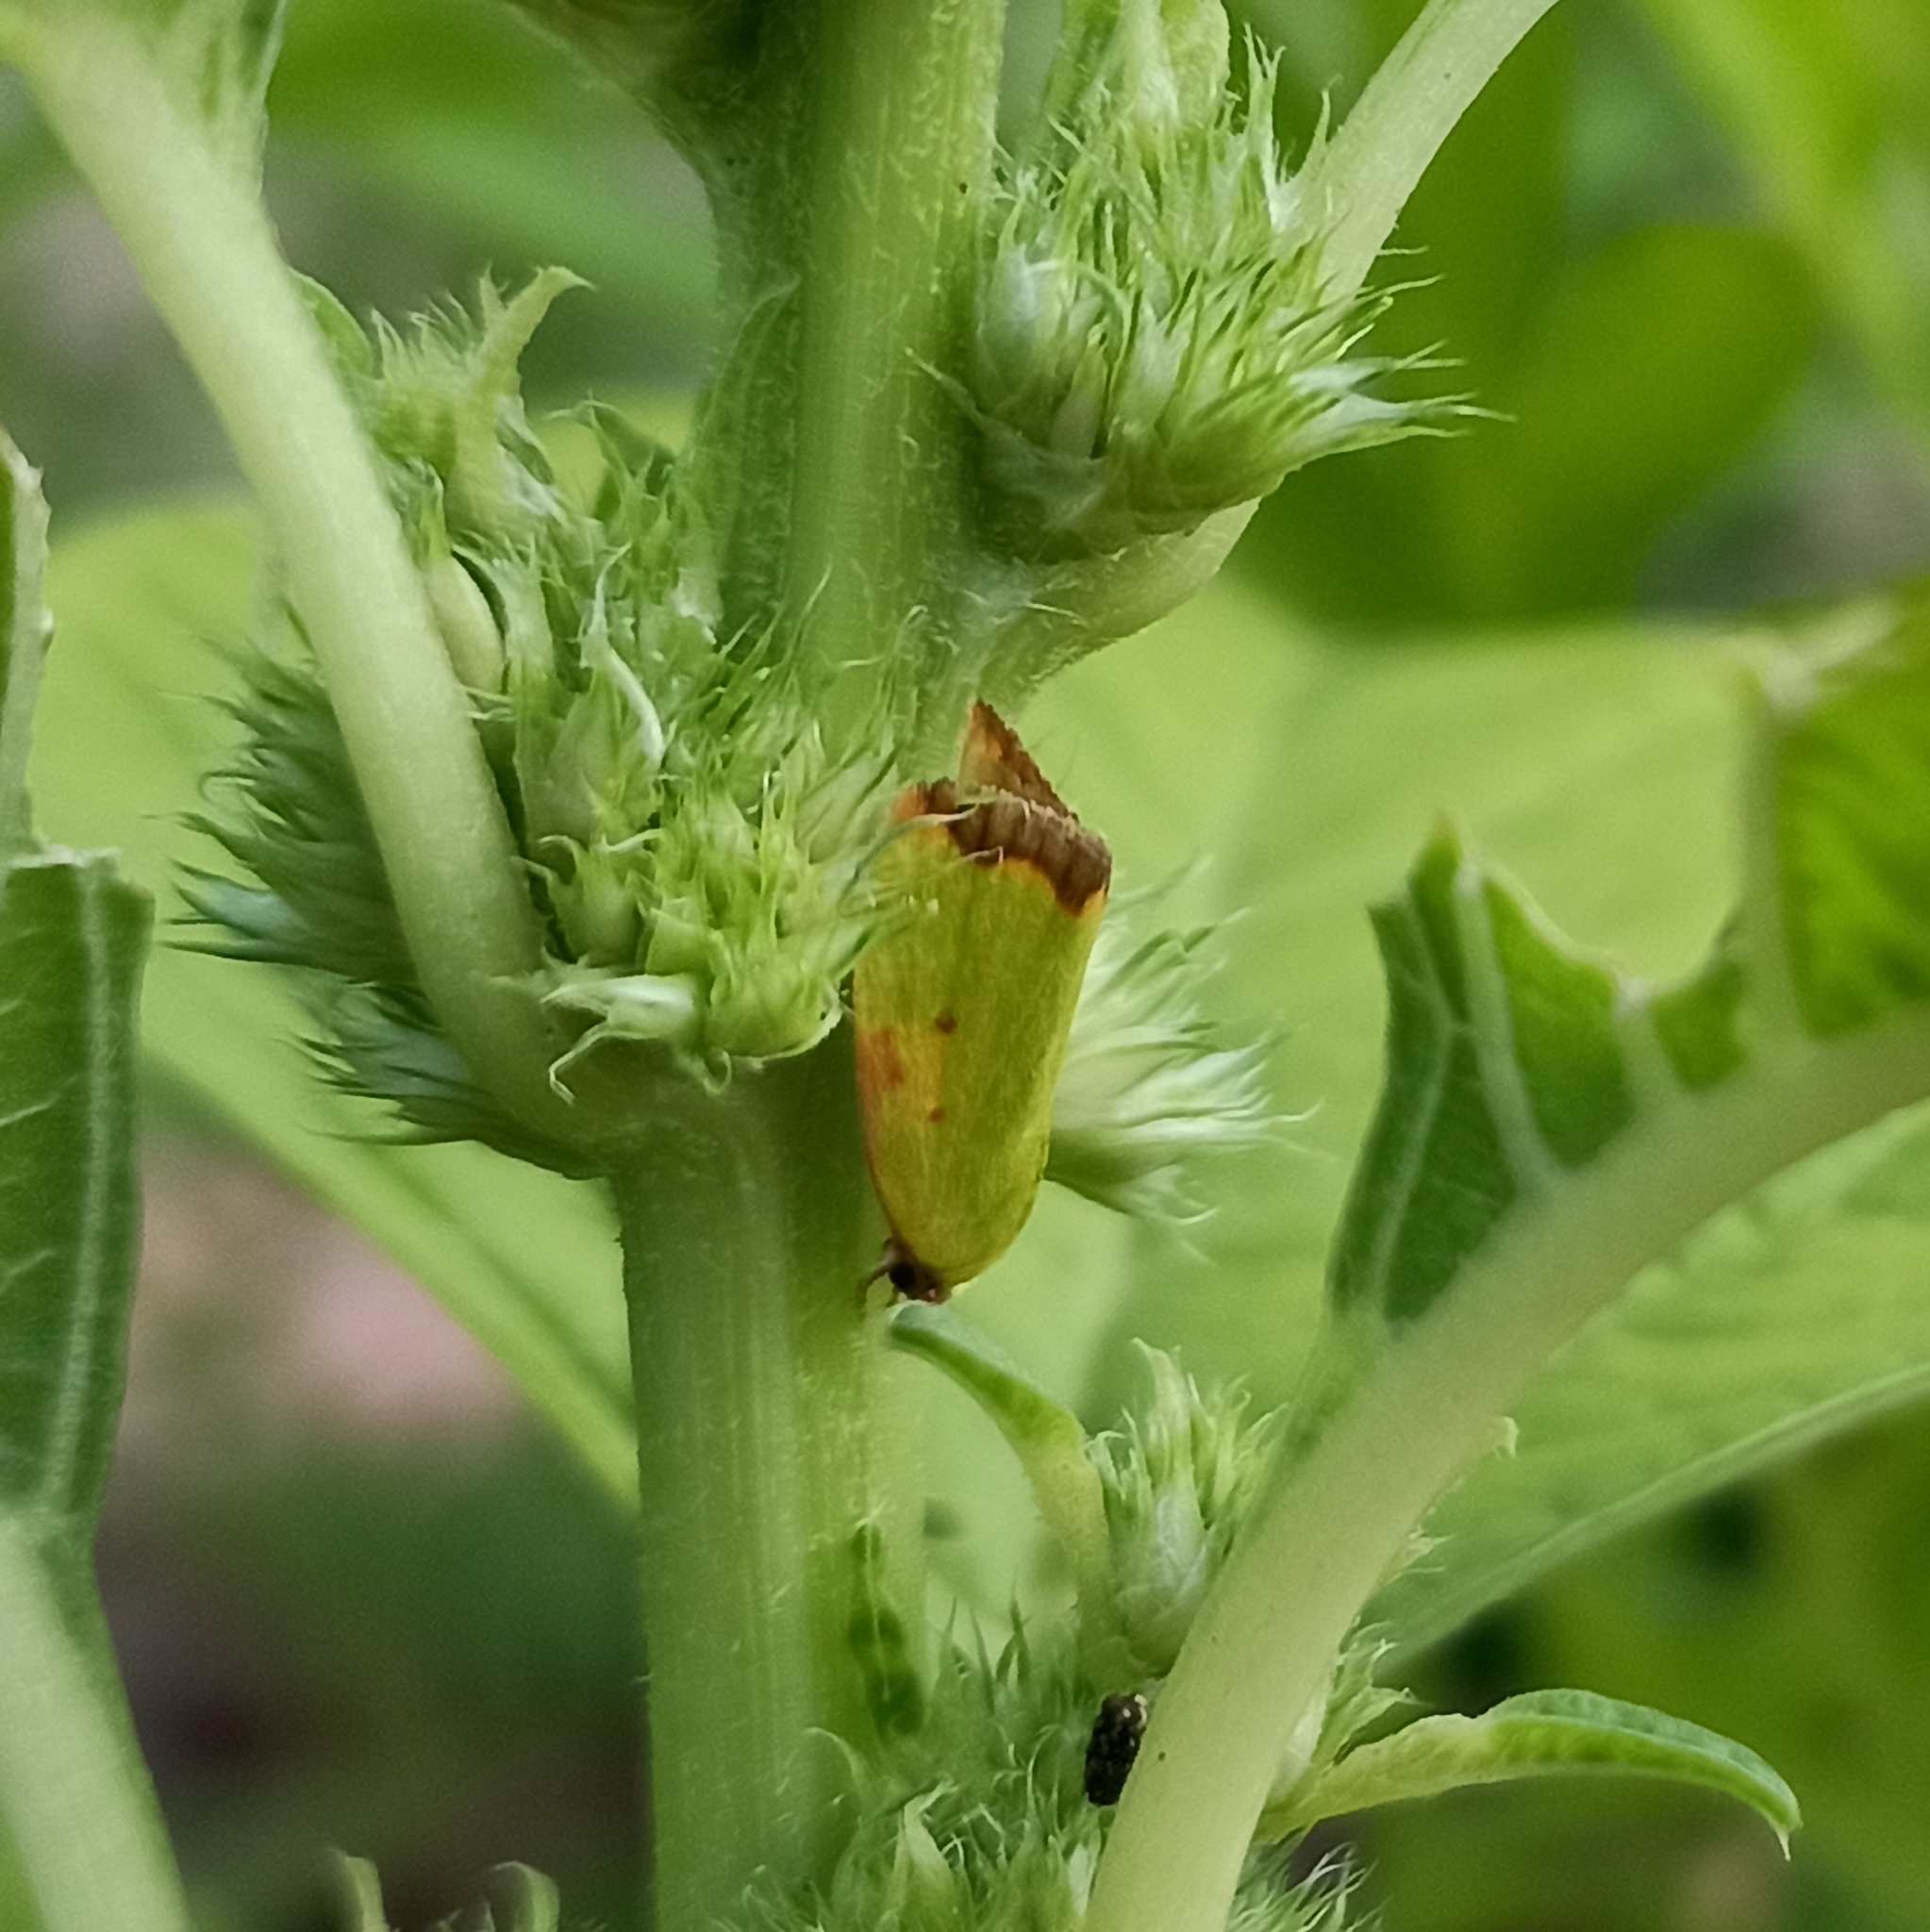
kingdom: Animalia
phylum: Arthropoda
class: Insecta
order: Lepidoptera
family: Nolidae
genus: Earias
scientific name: Earias cupreoviridis
